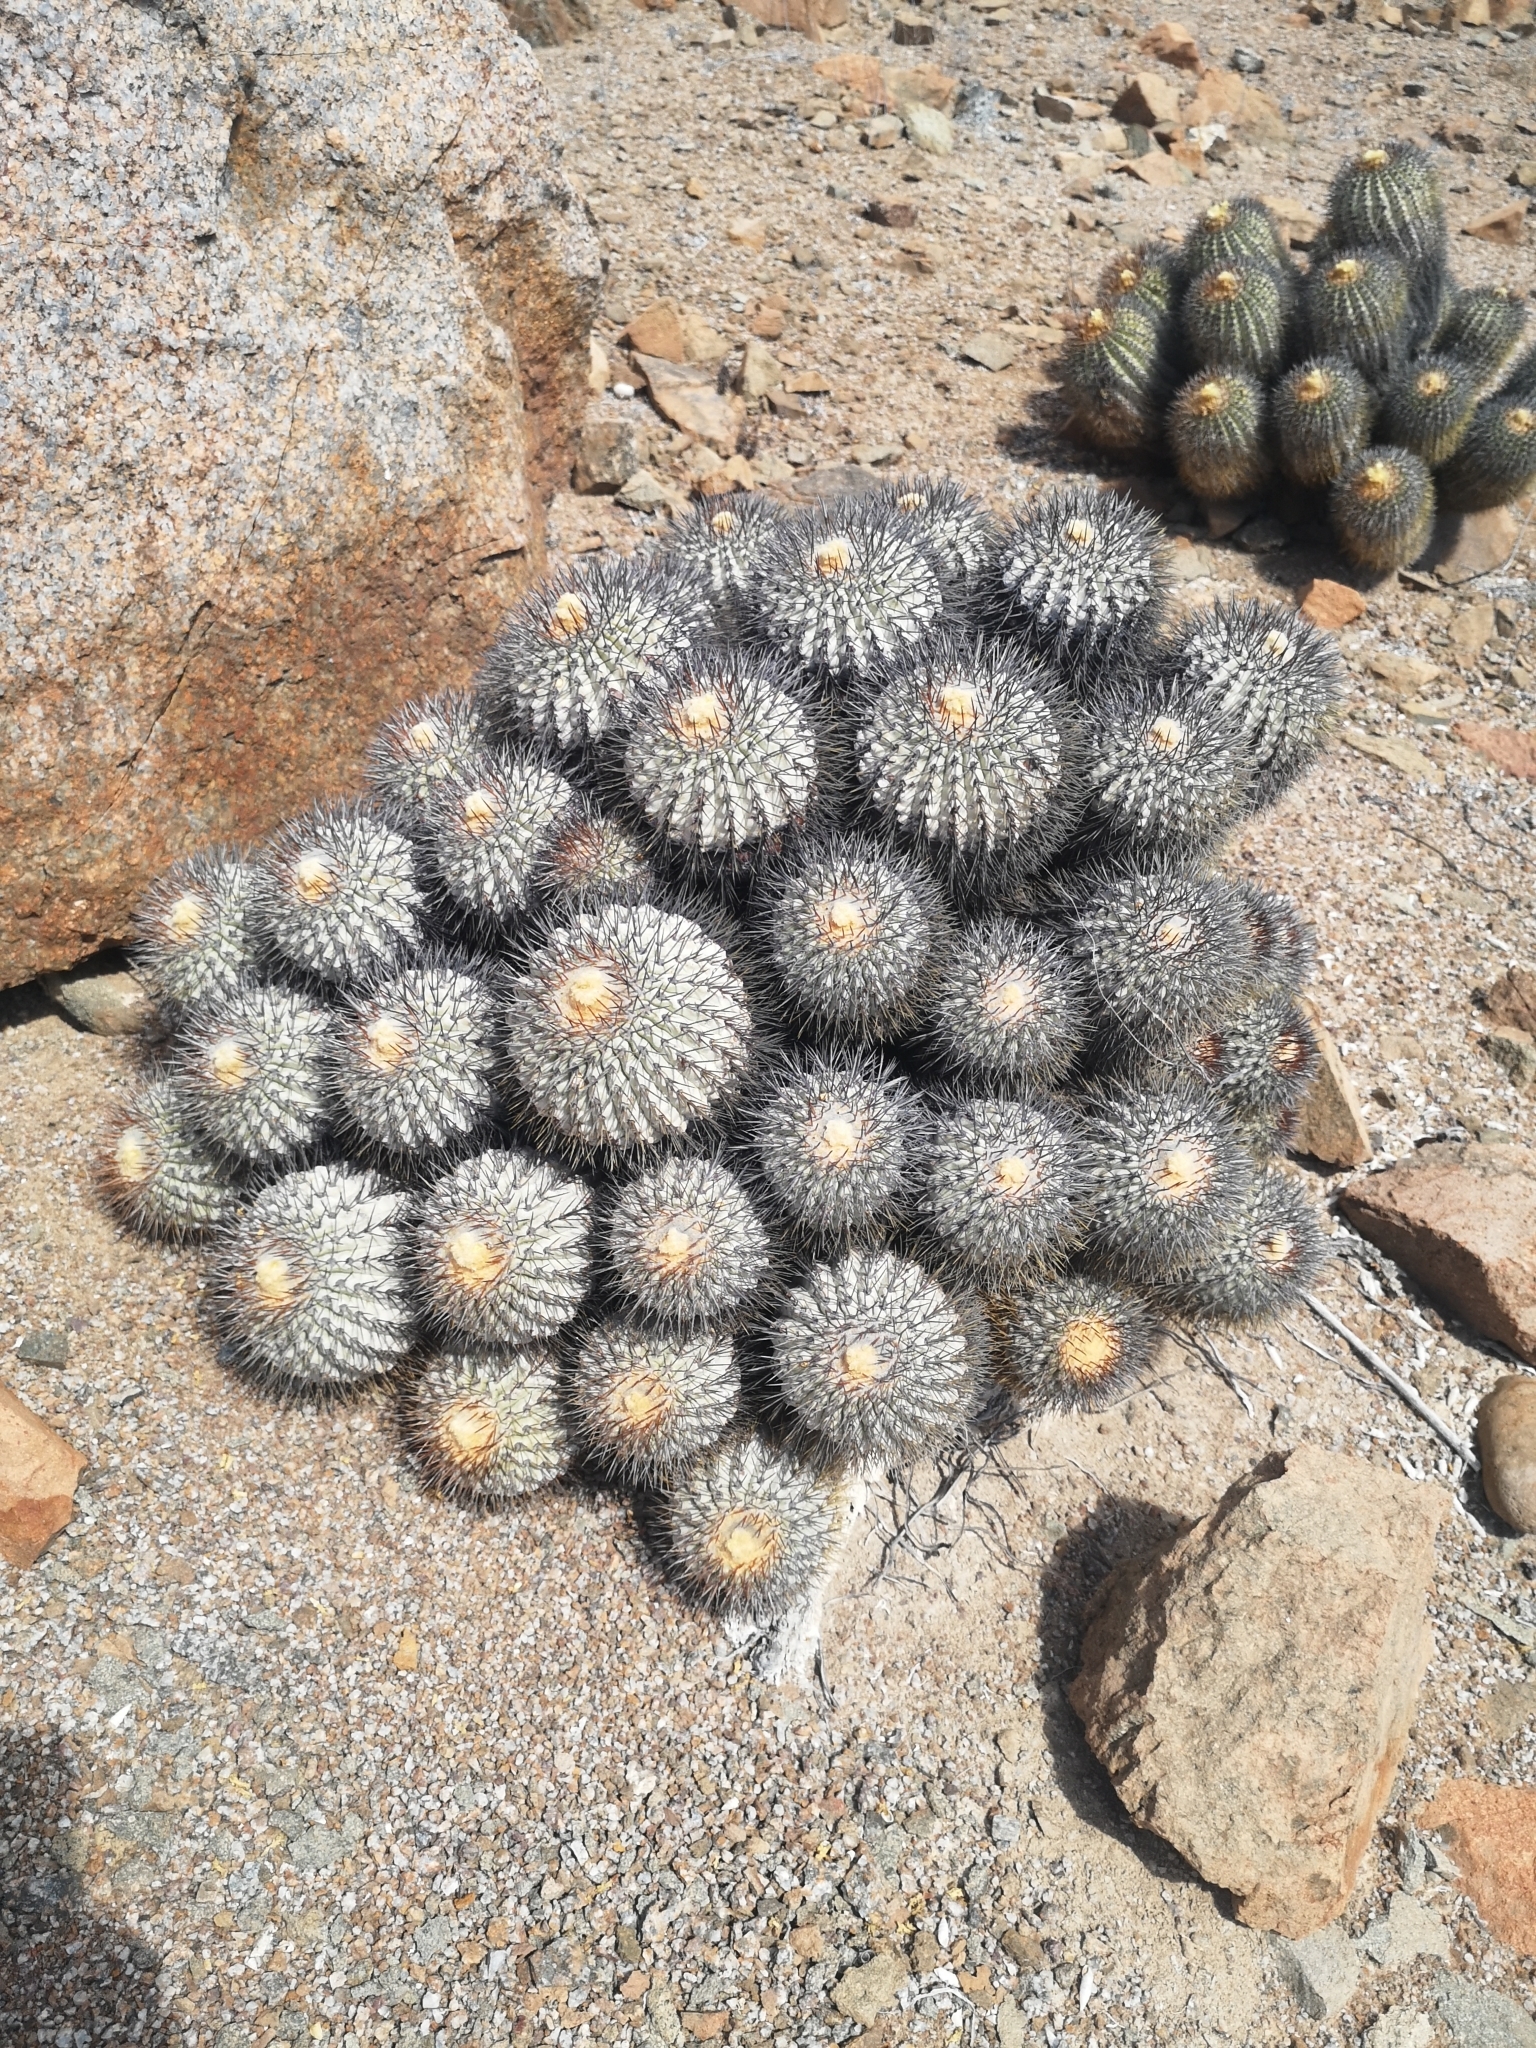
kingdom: Plantae
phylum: Tracheophyta
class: Magnoliopsida
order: Caryophyllales
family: Cactaceae
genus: Copiapoa
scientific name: Copiapoa longistaminea
